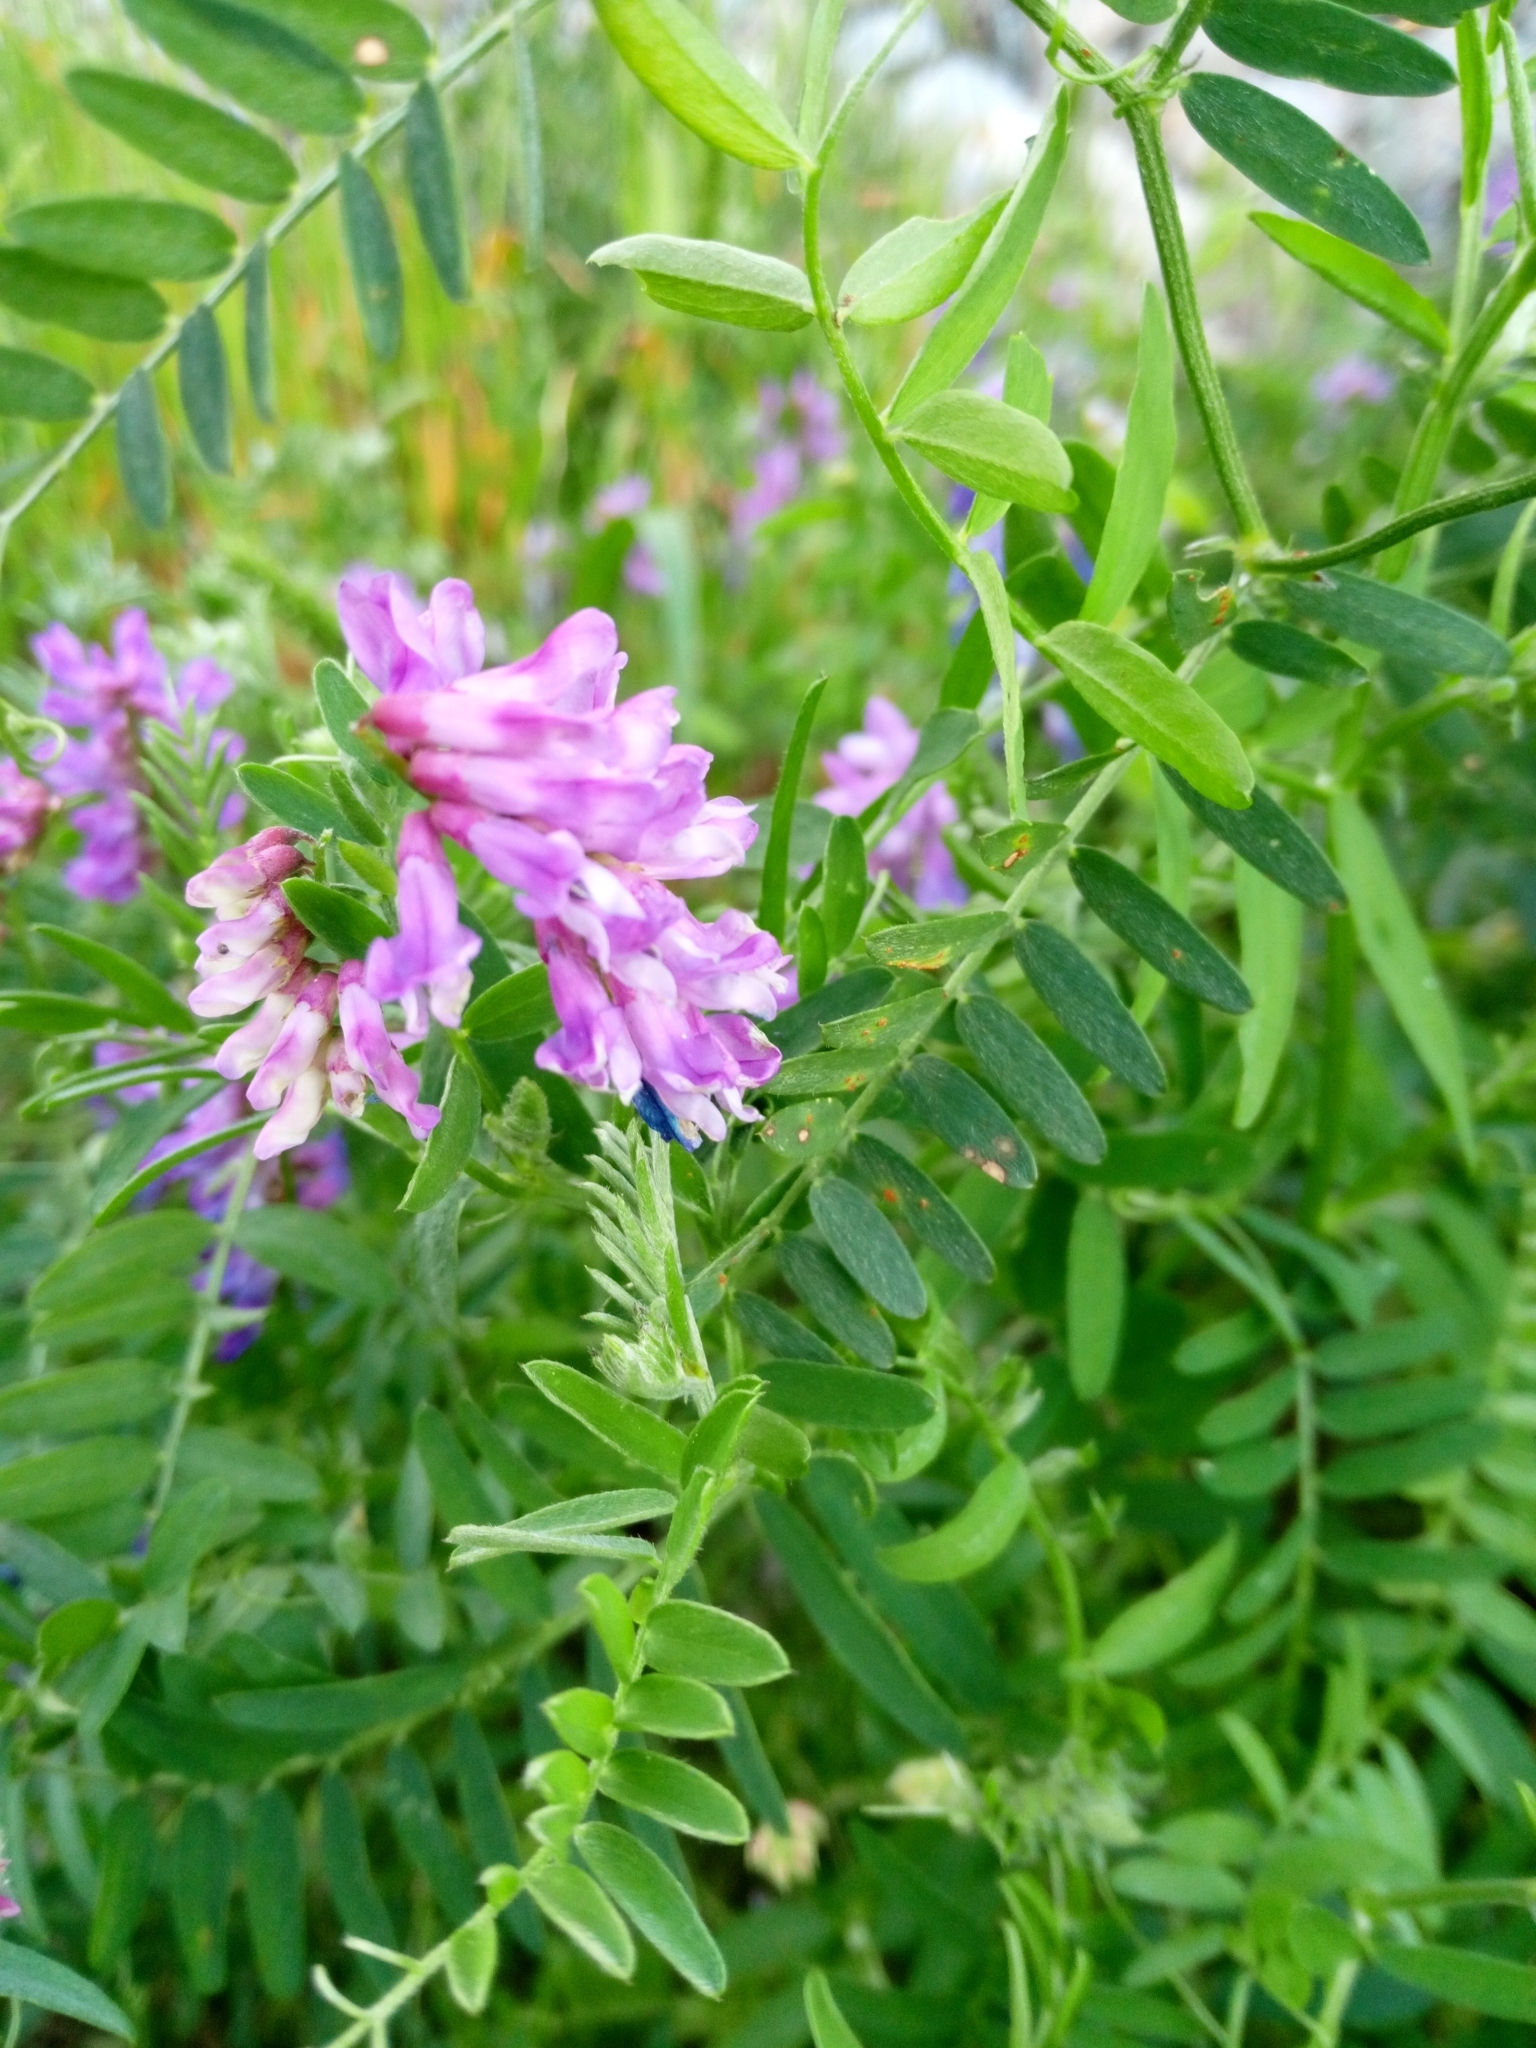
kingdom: Plantae
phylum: Tracheophyta
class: Magnoliopsida
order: Fabales
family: Fabaceae
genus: Vicia
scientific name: Vicia cracca
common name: Bird vetch
